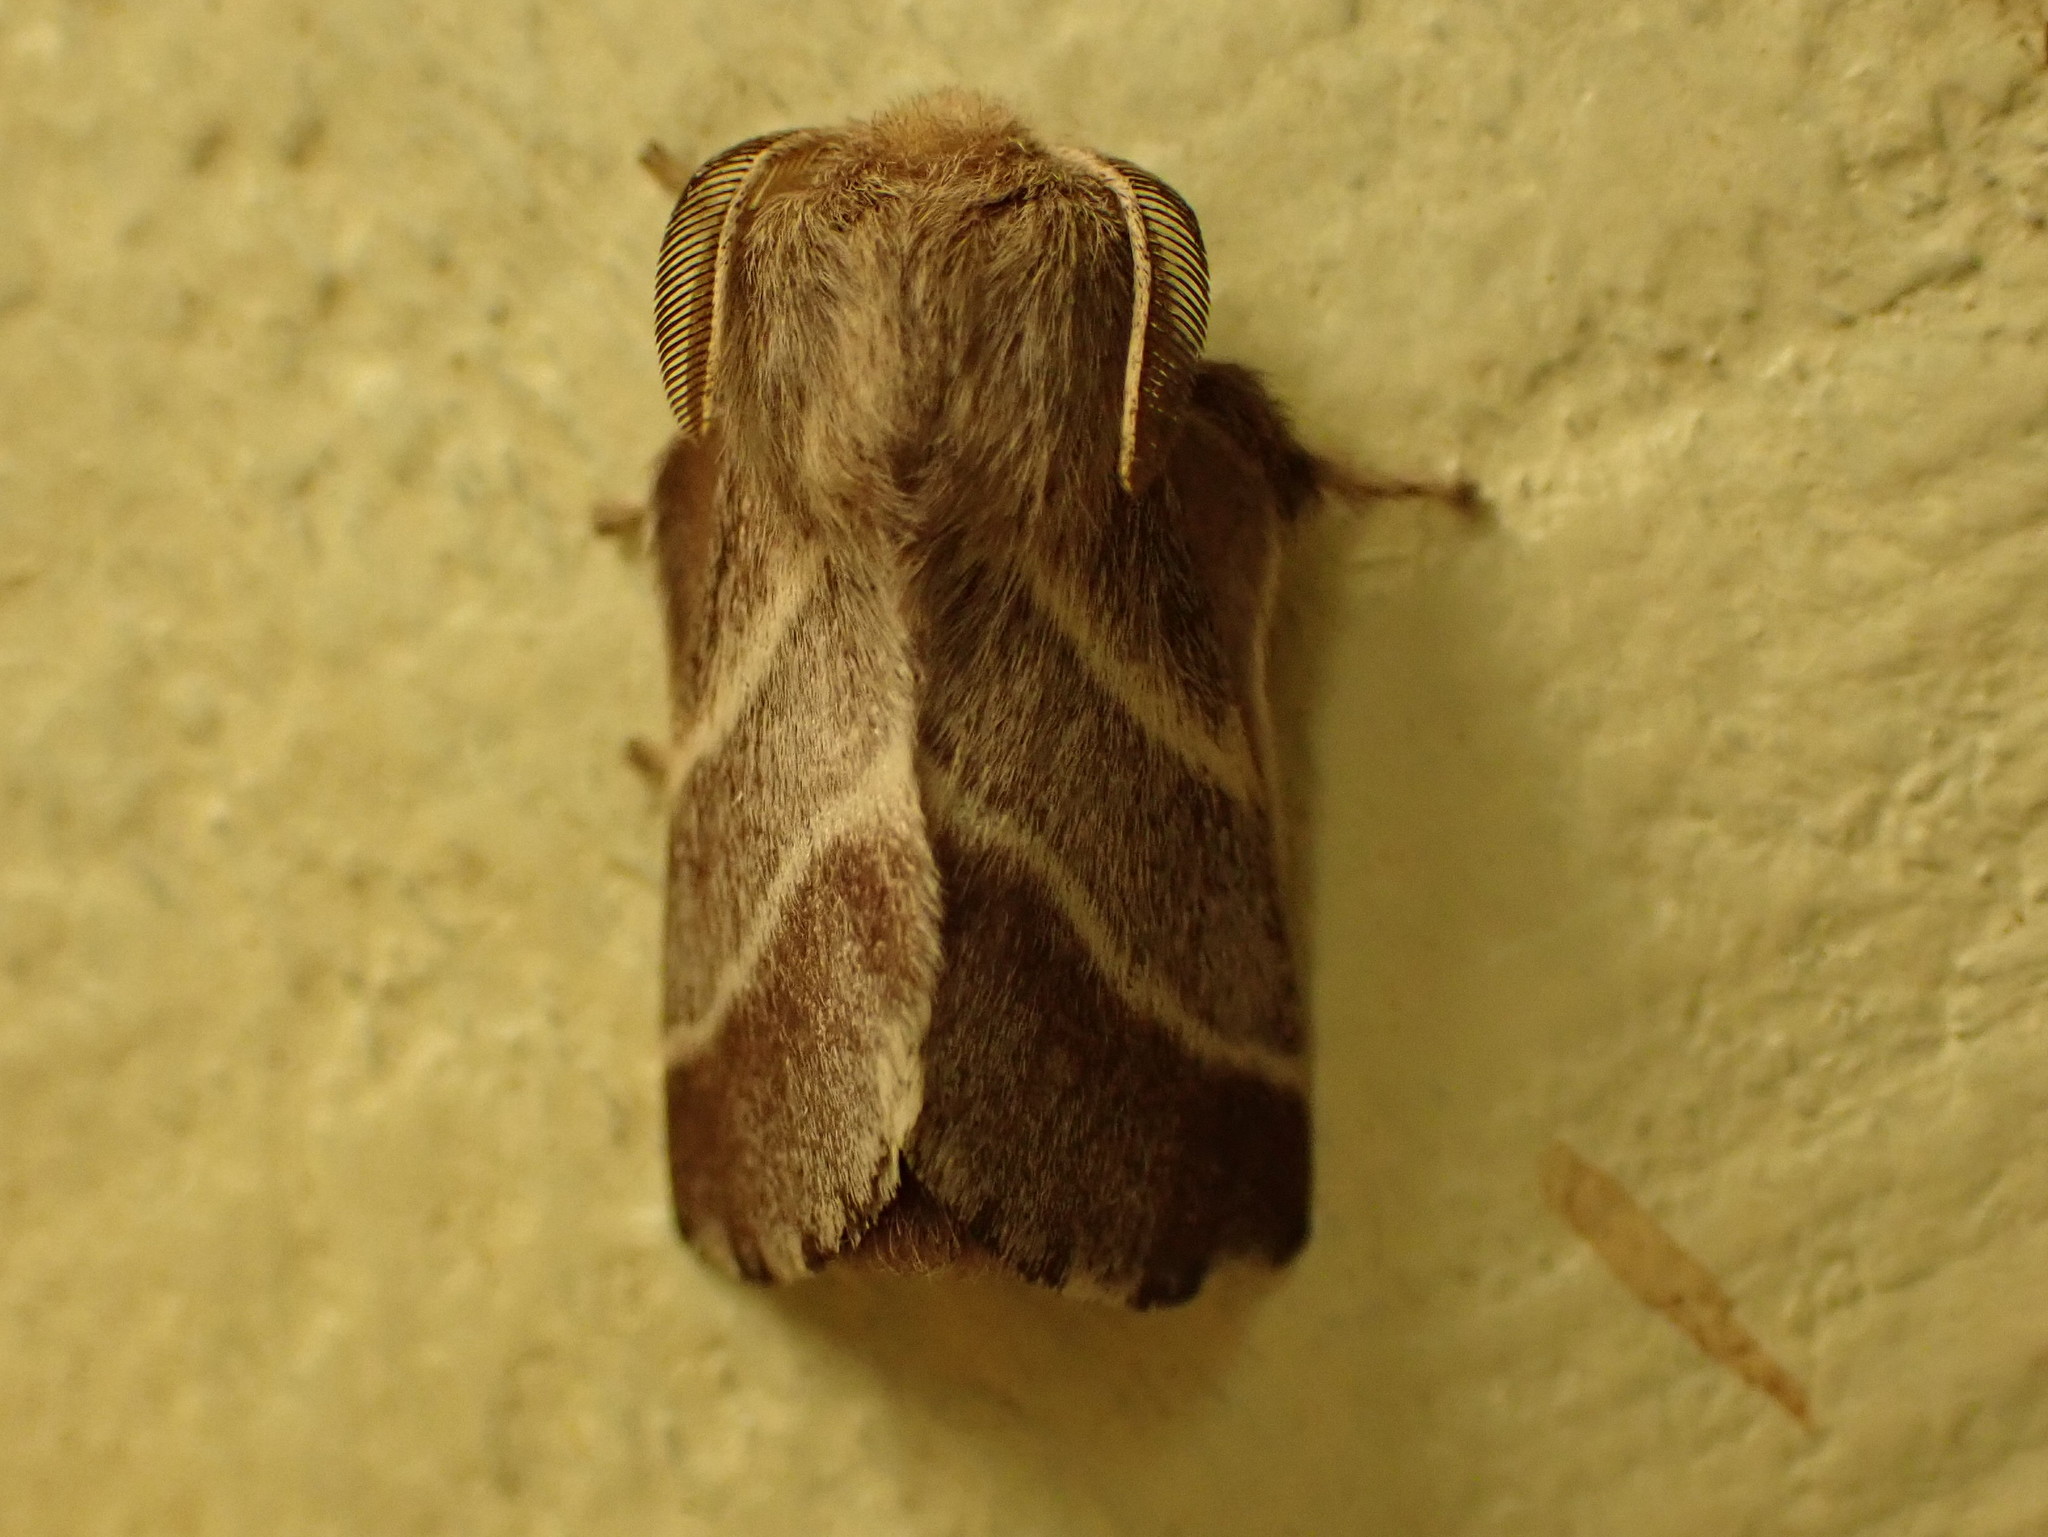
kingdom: Animalia
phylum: Arthropoda
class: Insecta
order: Lepidoptera
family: Lasiocampidae
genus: Malacosoma
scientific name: Malacosoma americana
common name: Eastern tent caterpillar moth
